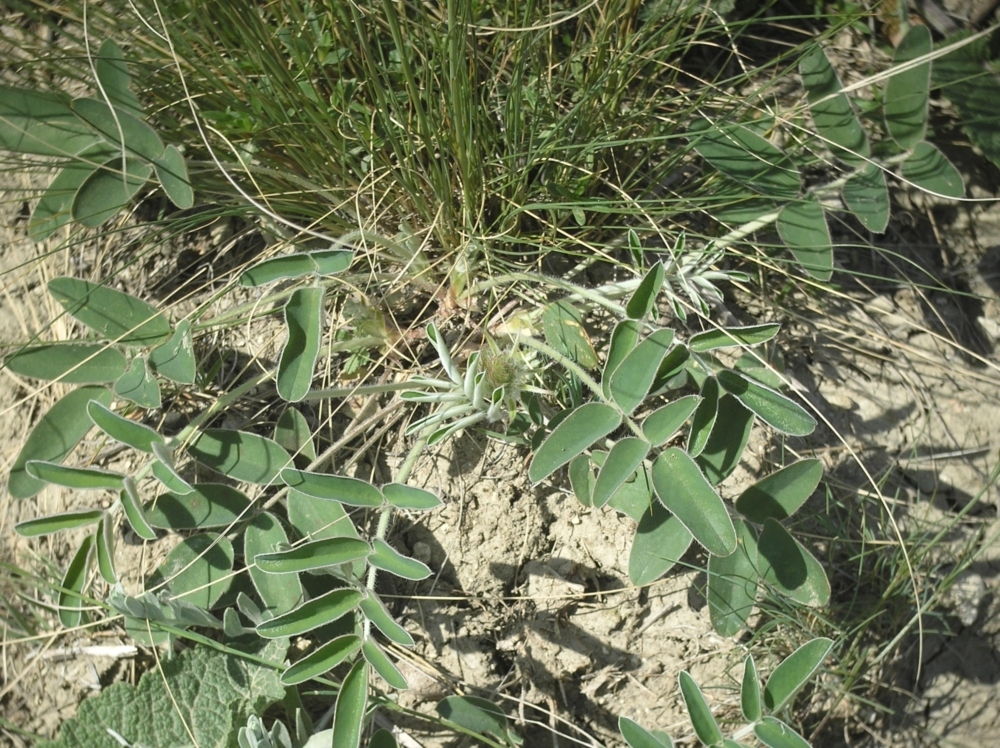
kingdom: Plantae
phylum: Tracheophyta
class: Magnoliopsida
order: Fabales
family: Fabaceae
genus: Hedysarum
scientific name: Hedysarum grandiflorum
